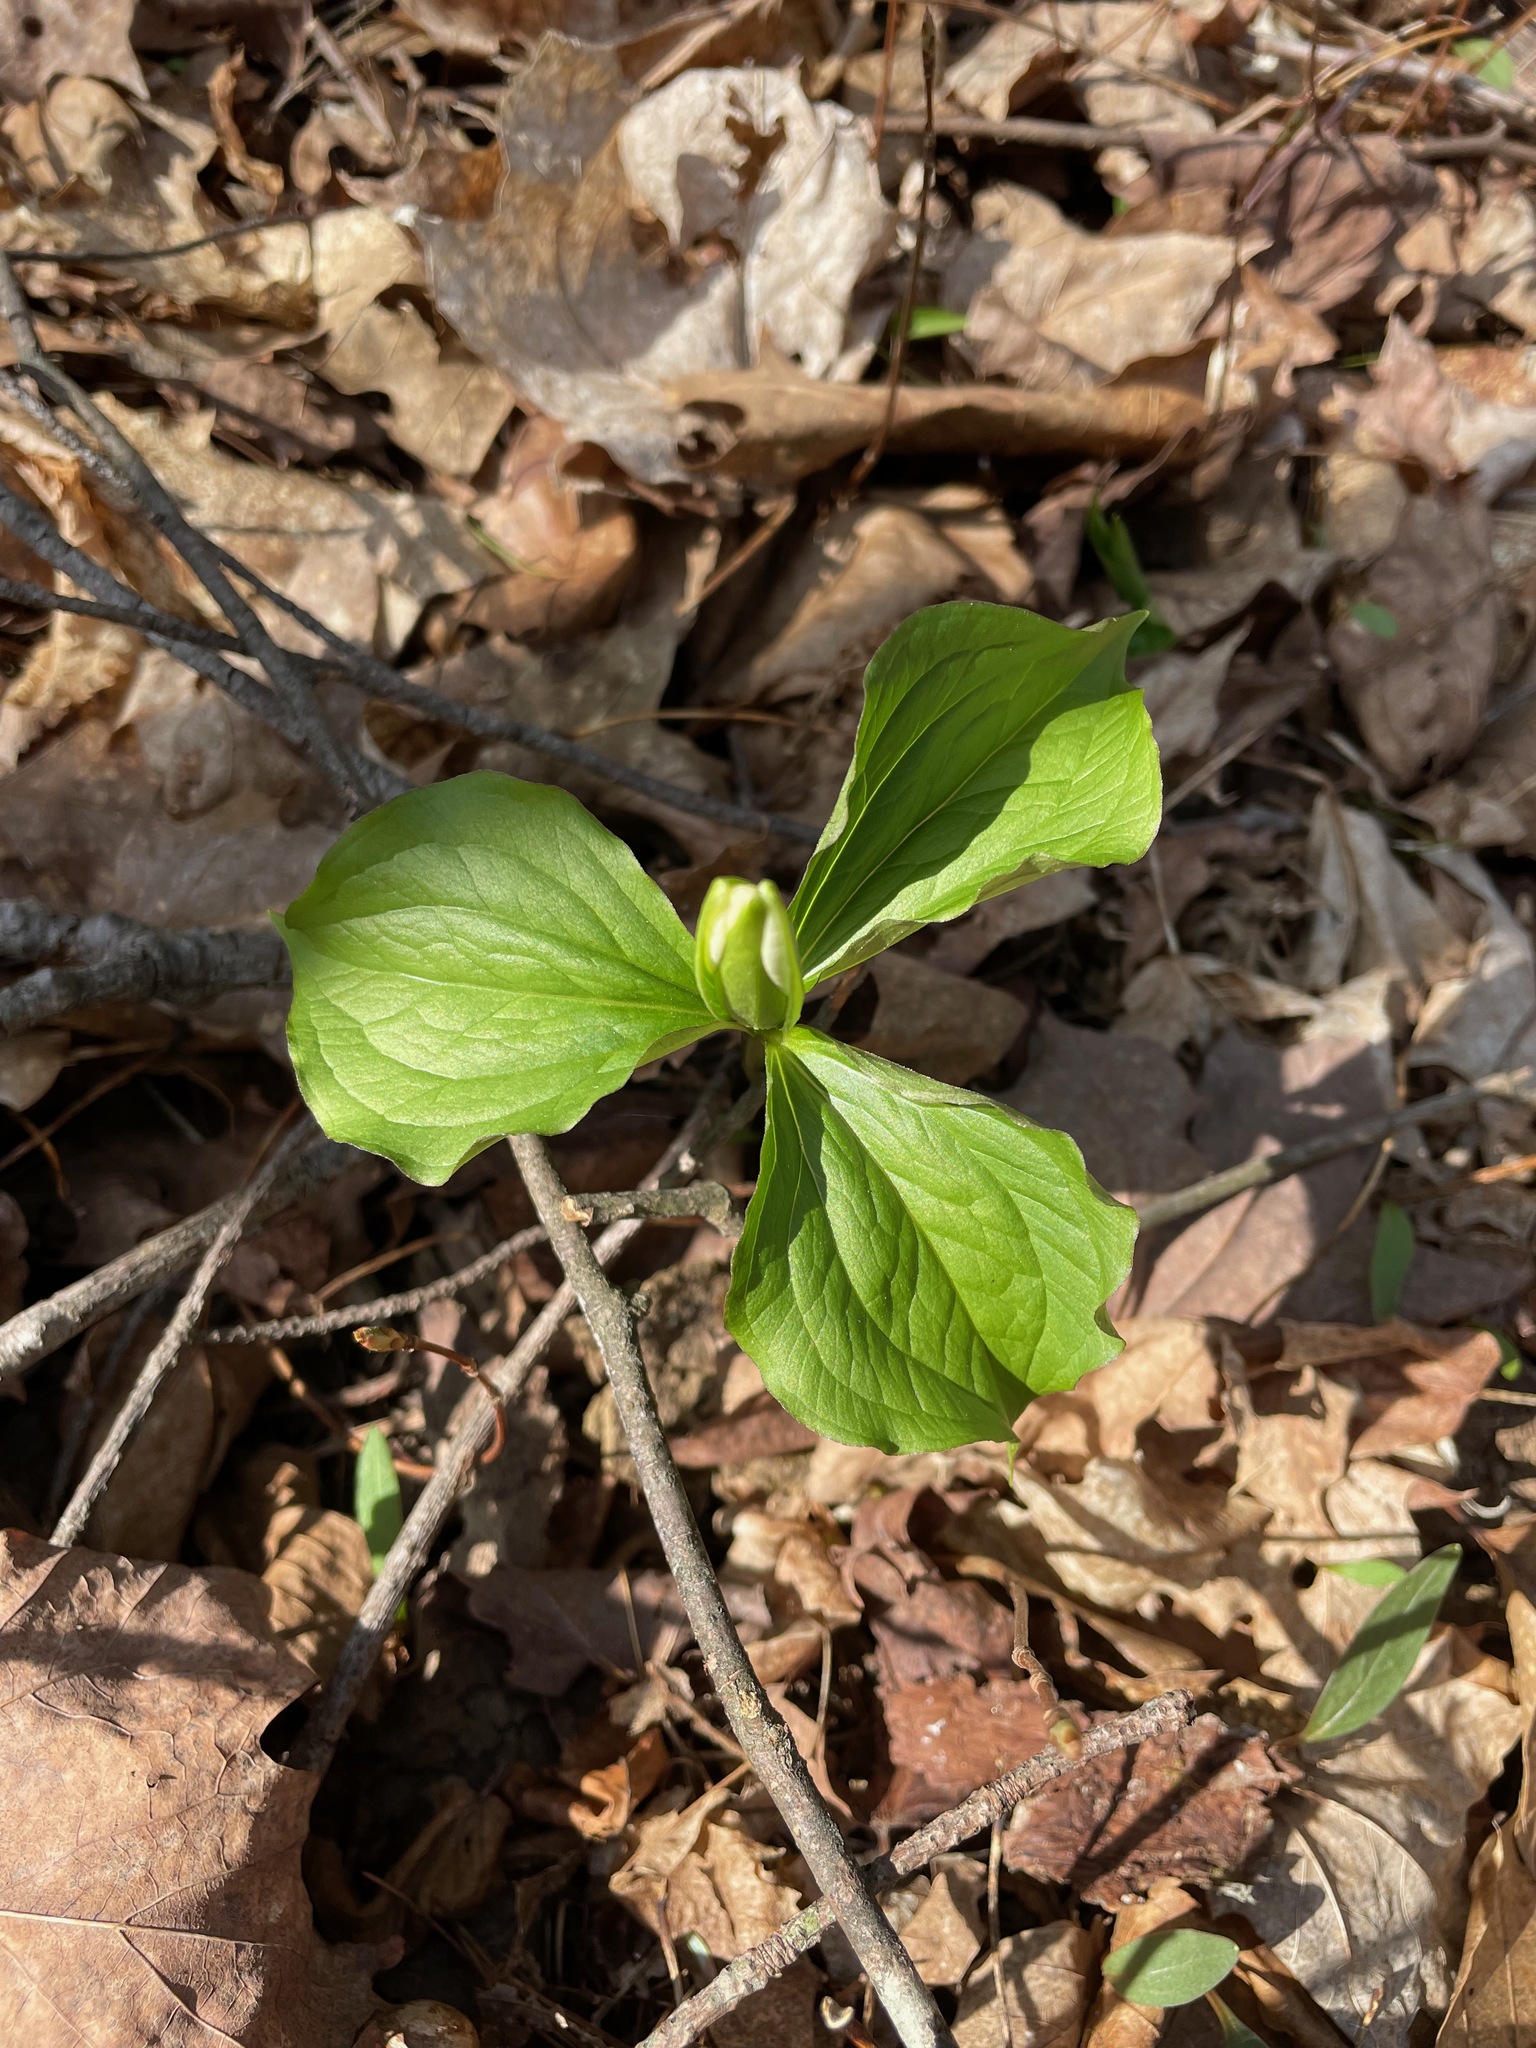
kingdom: Plantae
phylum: Tracheophyta
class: Liliopsida
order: Liliales
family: Melanthiaceae
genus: Trillium
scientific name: Trillium grandiflorum
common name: Great white trillium
